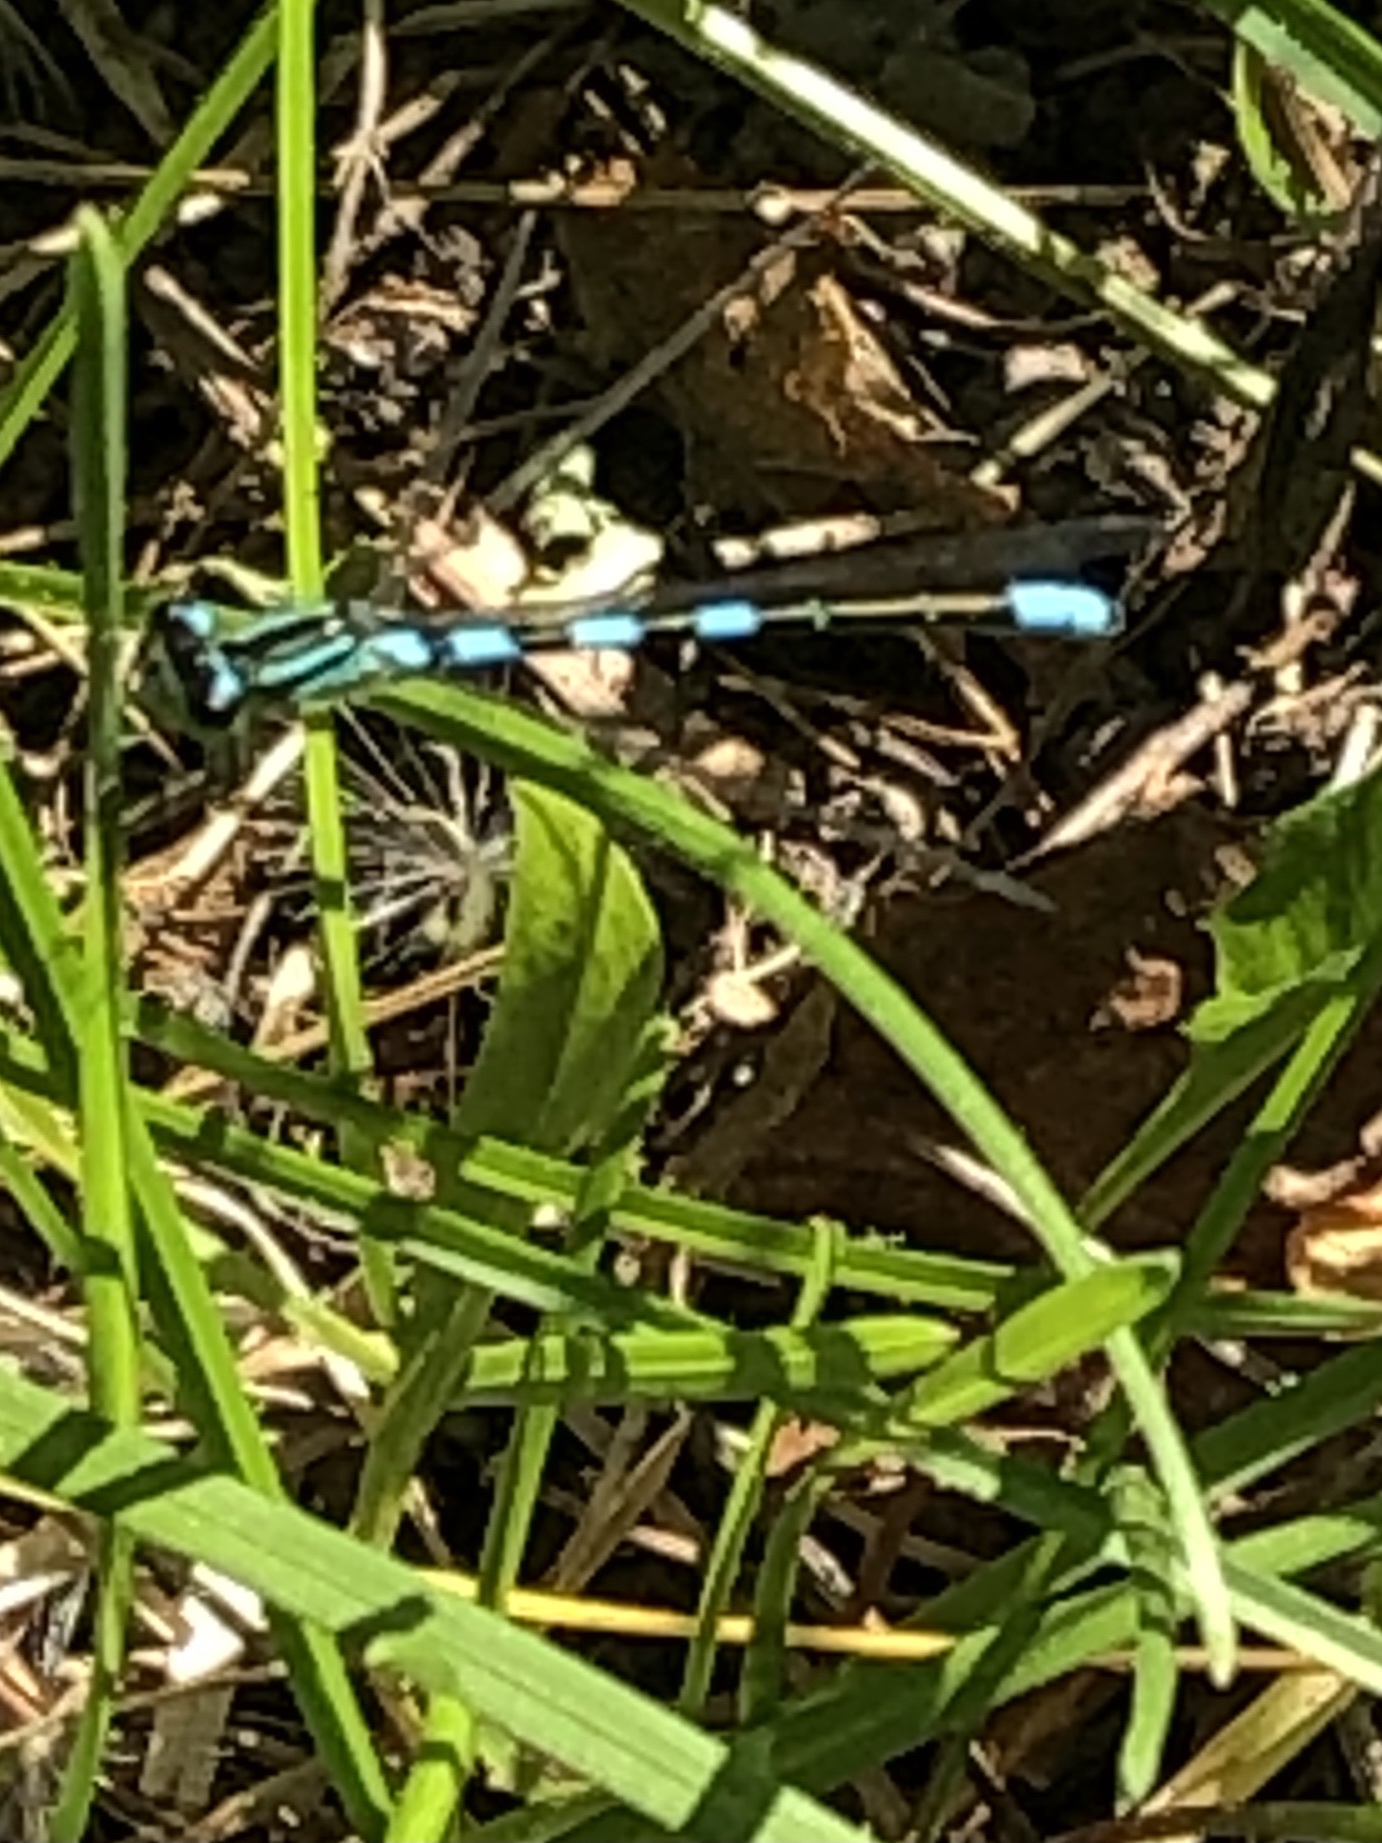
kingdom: Animalia
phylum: Arthropoda
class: Insecta
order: Odonata
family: Coenagrionidae
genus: Coenagrion
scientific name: Coenagrion resolutum
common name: Taiga bluet
